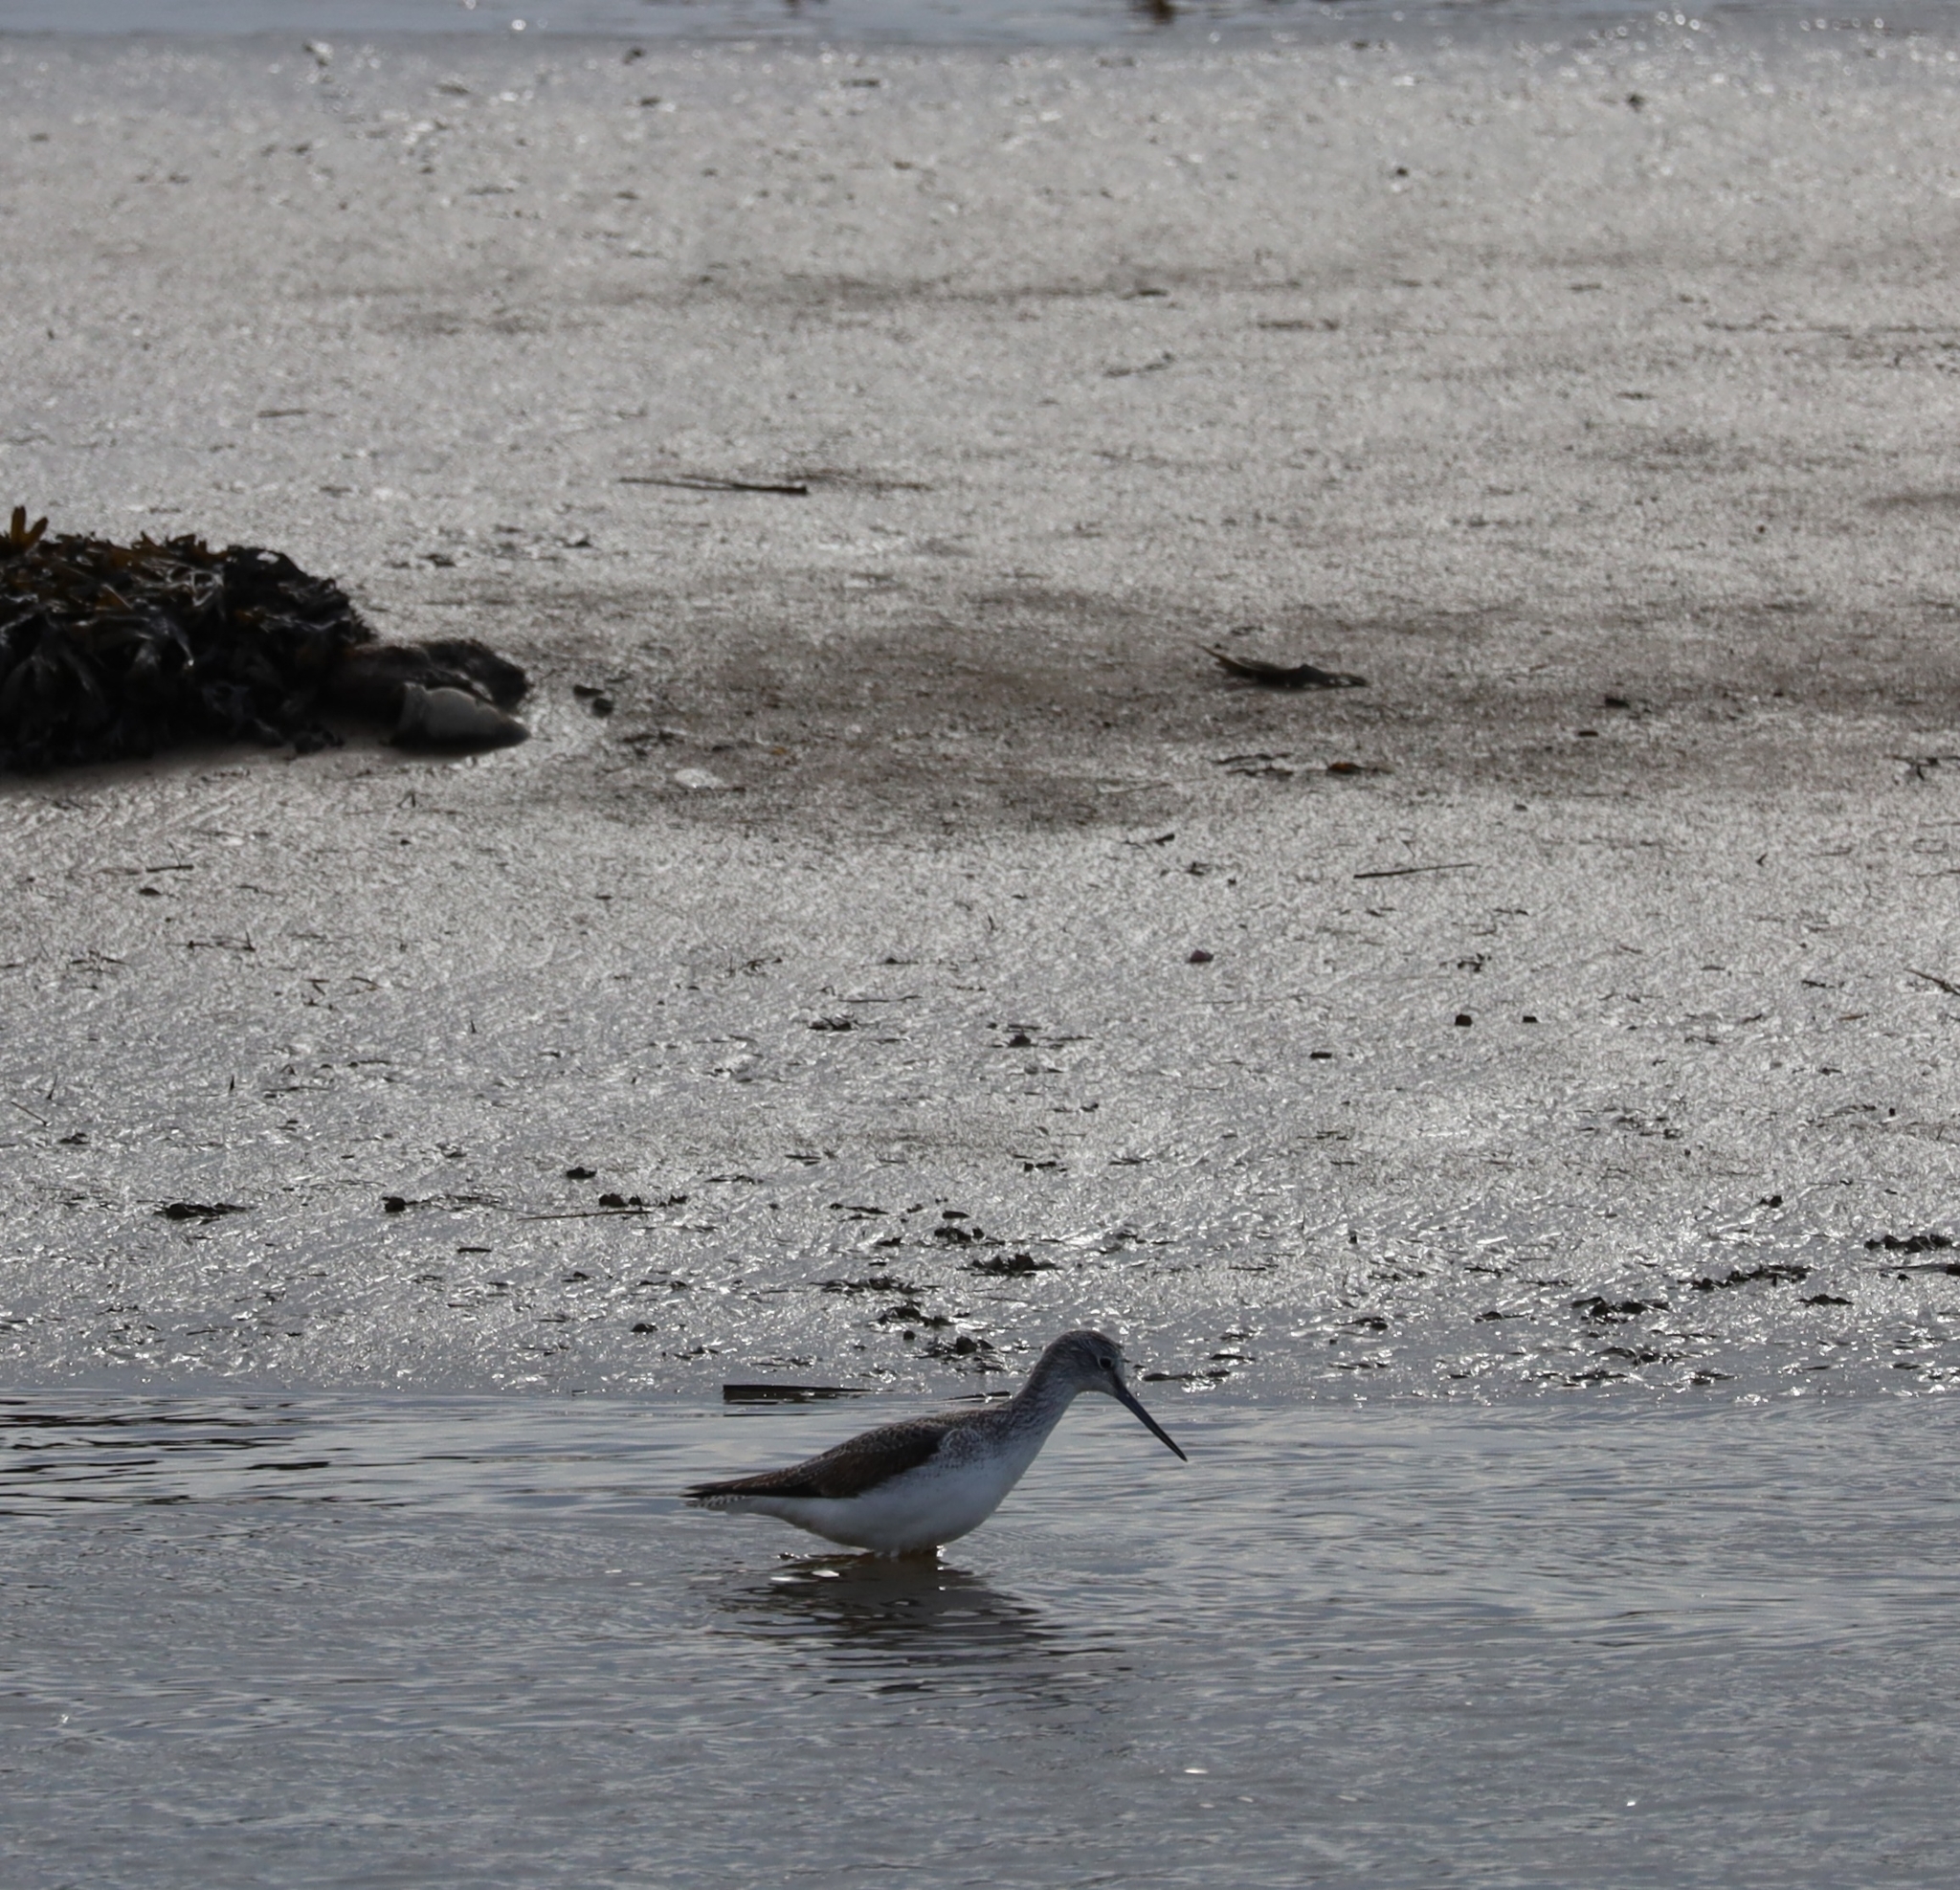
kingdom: Animalia
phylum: Chordata
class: Aves
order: Charadriiformes
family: Scolopacidae
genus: Tringa
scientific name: Tringa nebularia
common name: Common greenshank
